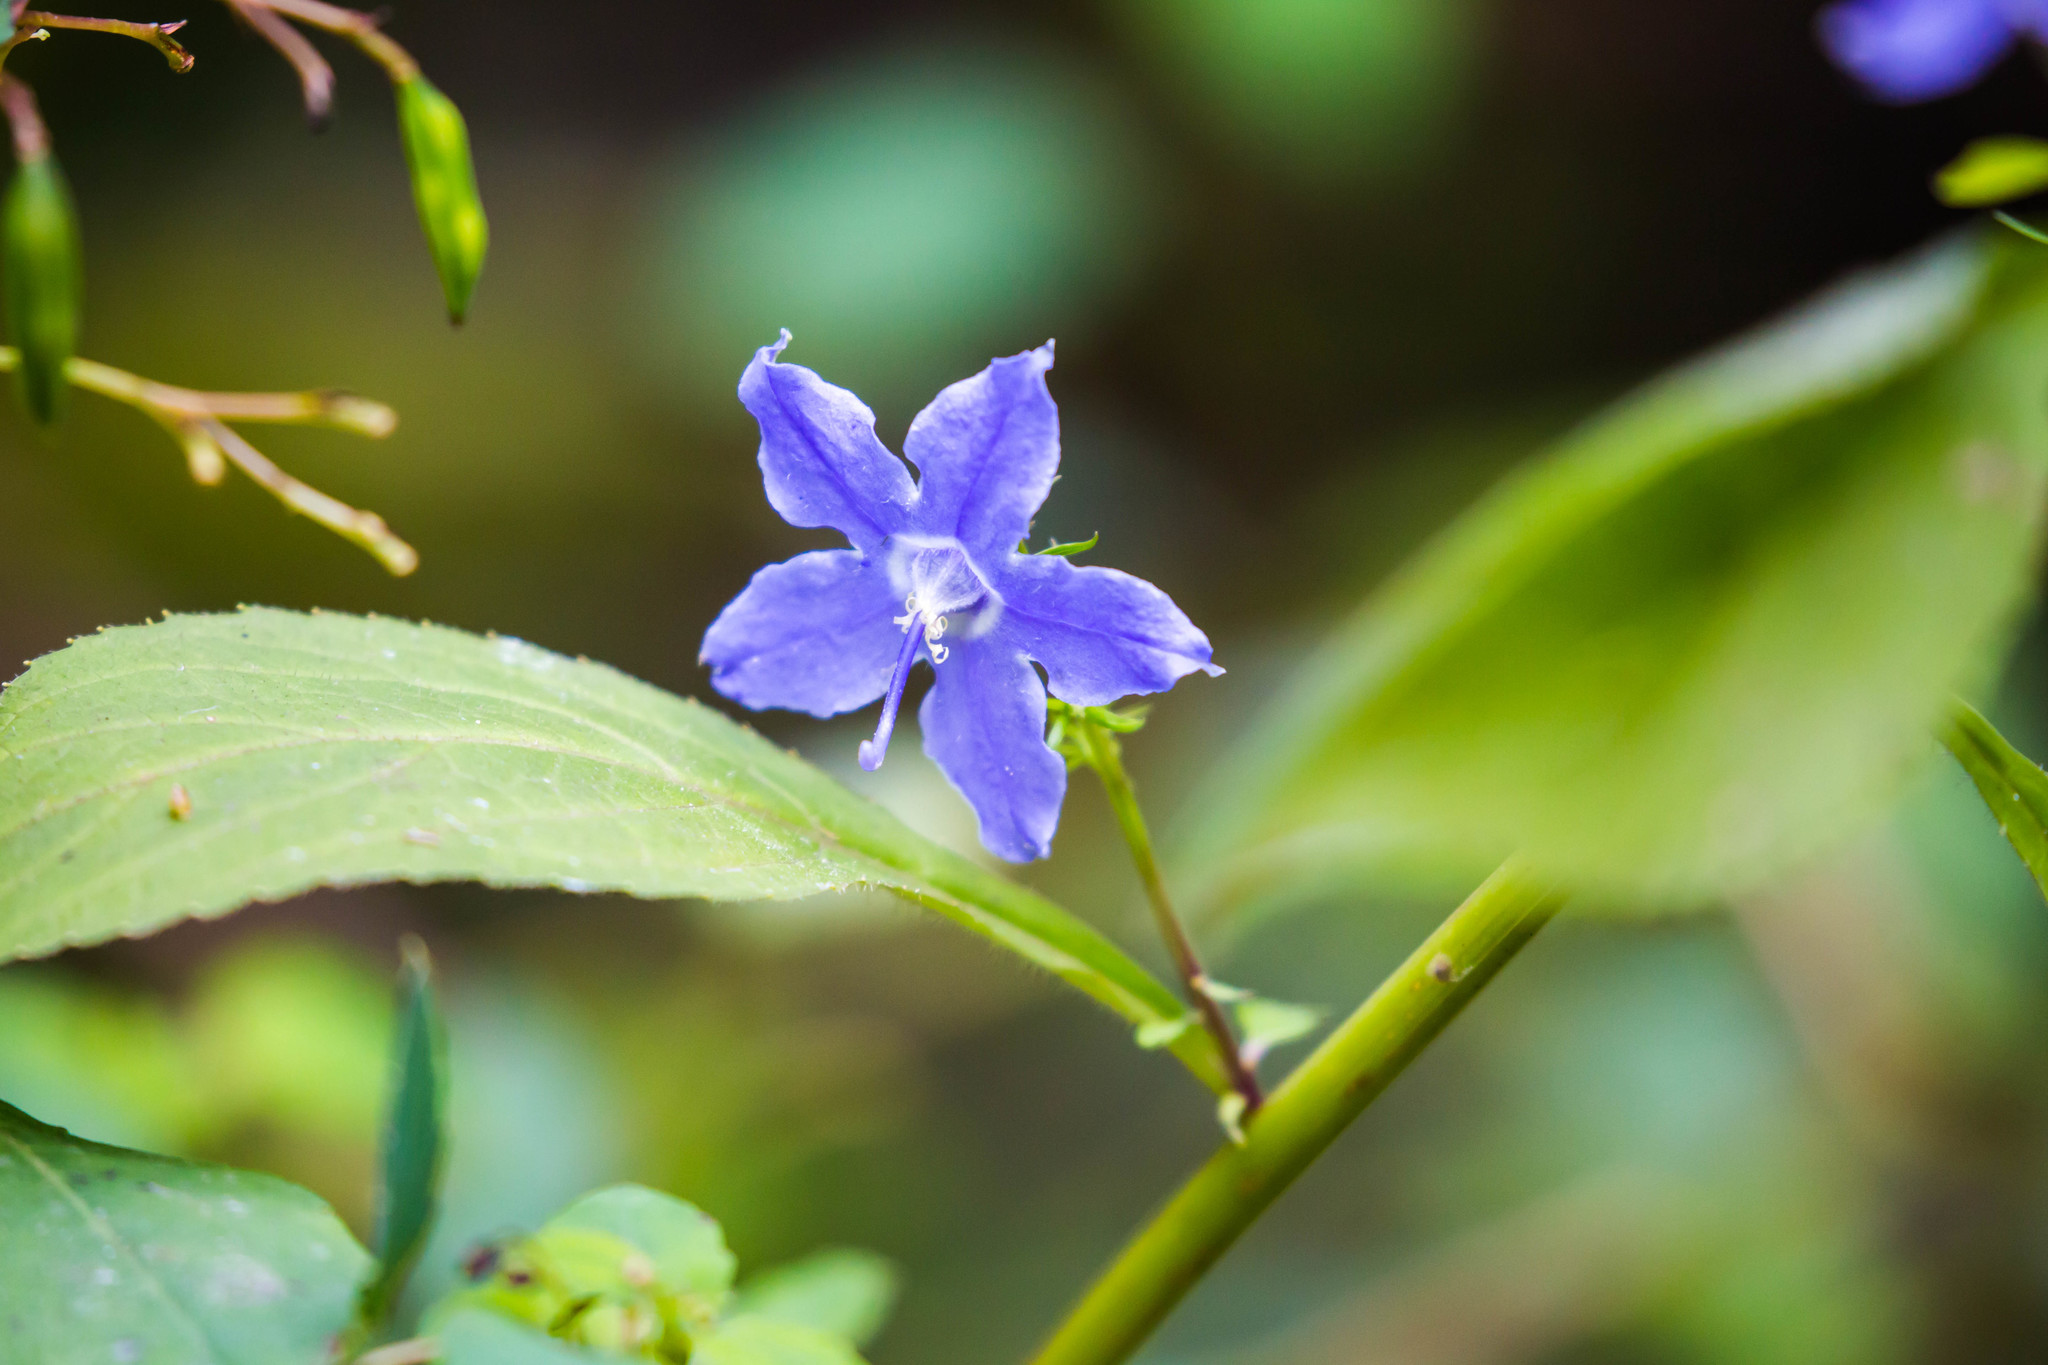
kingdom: Plantae
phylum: Tracheophyta
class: Magnoliopsida
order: Asterales
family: Campanulaceae
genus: Campanulastrum
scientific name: Campanulastrum americanum
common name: American bellflower
